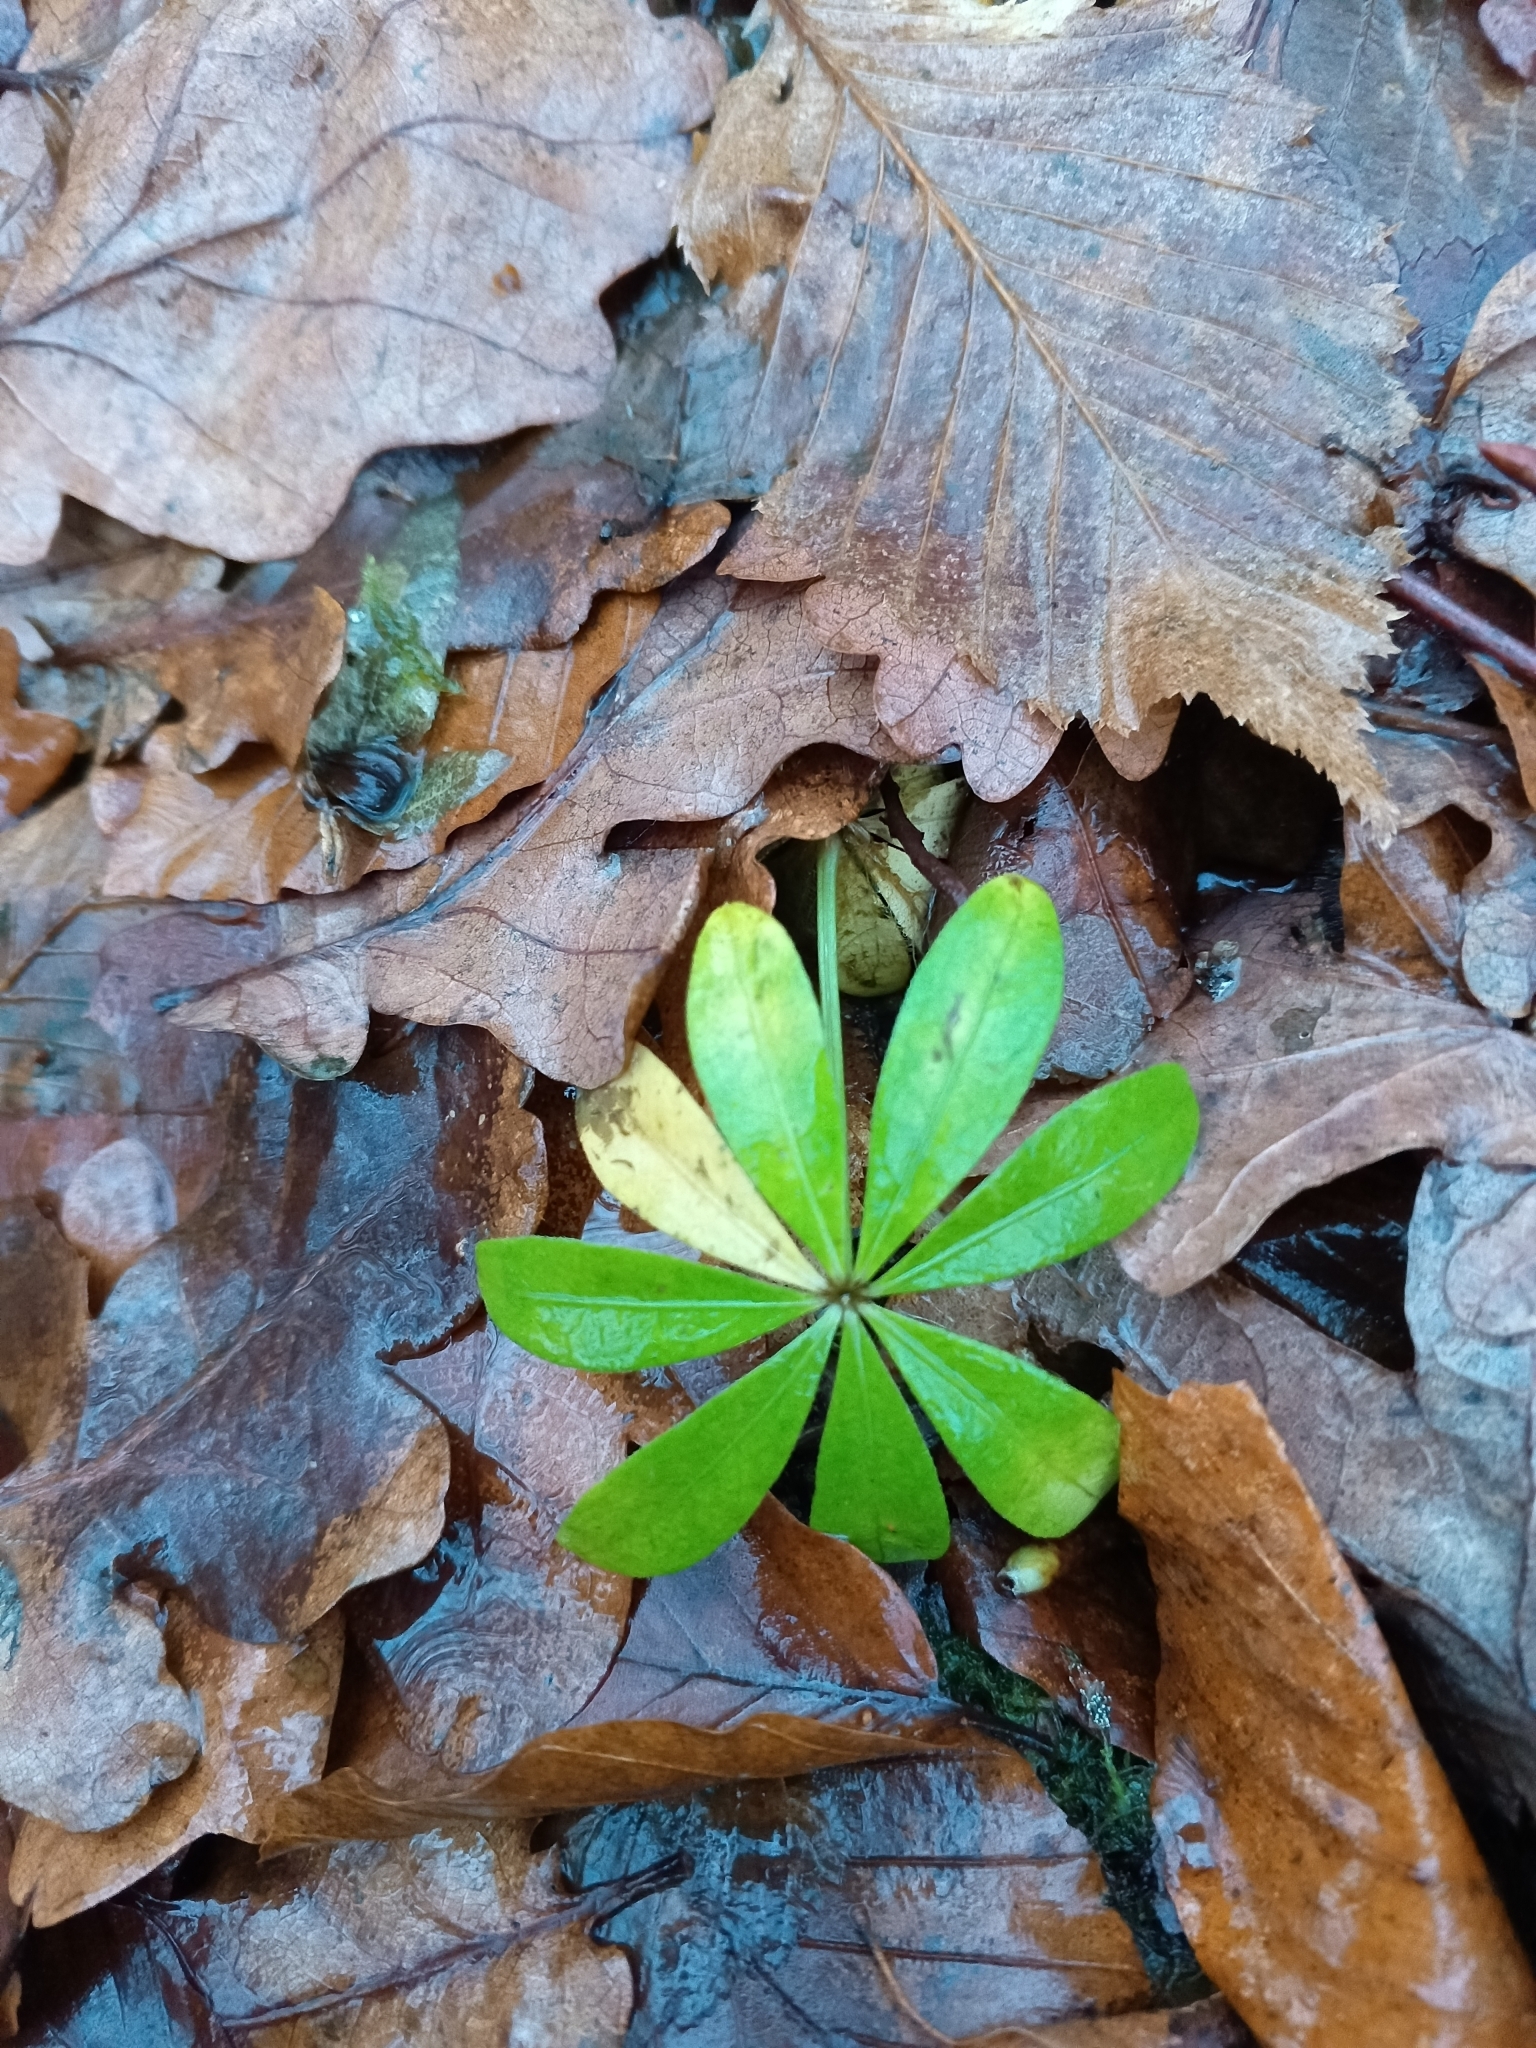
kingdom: Plantae
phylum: Tracheophyta
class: Magnoliopsida
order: Gentianales
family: Rubiaceae
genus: Galium
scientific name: Galium odoratum
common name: Sweet woodruff
